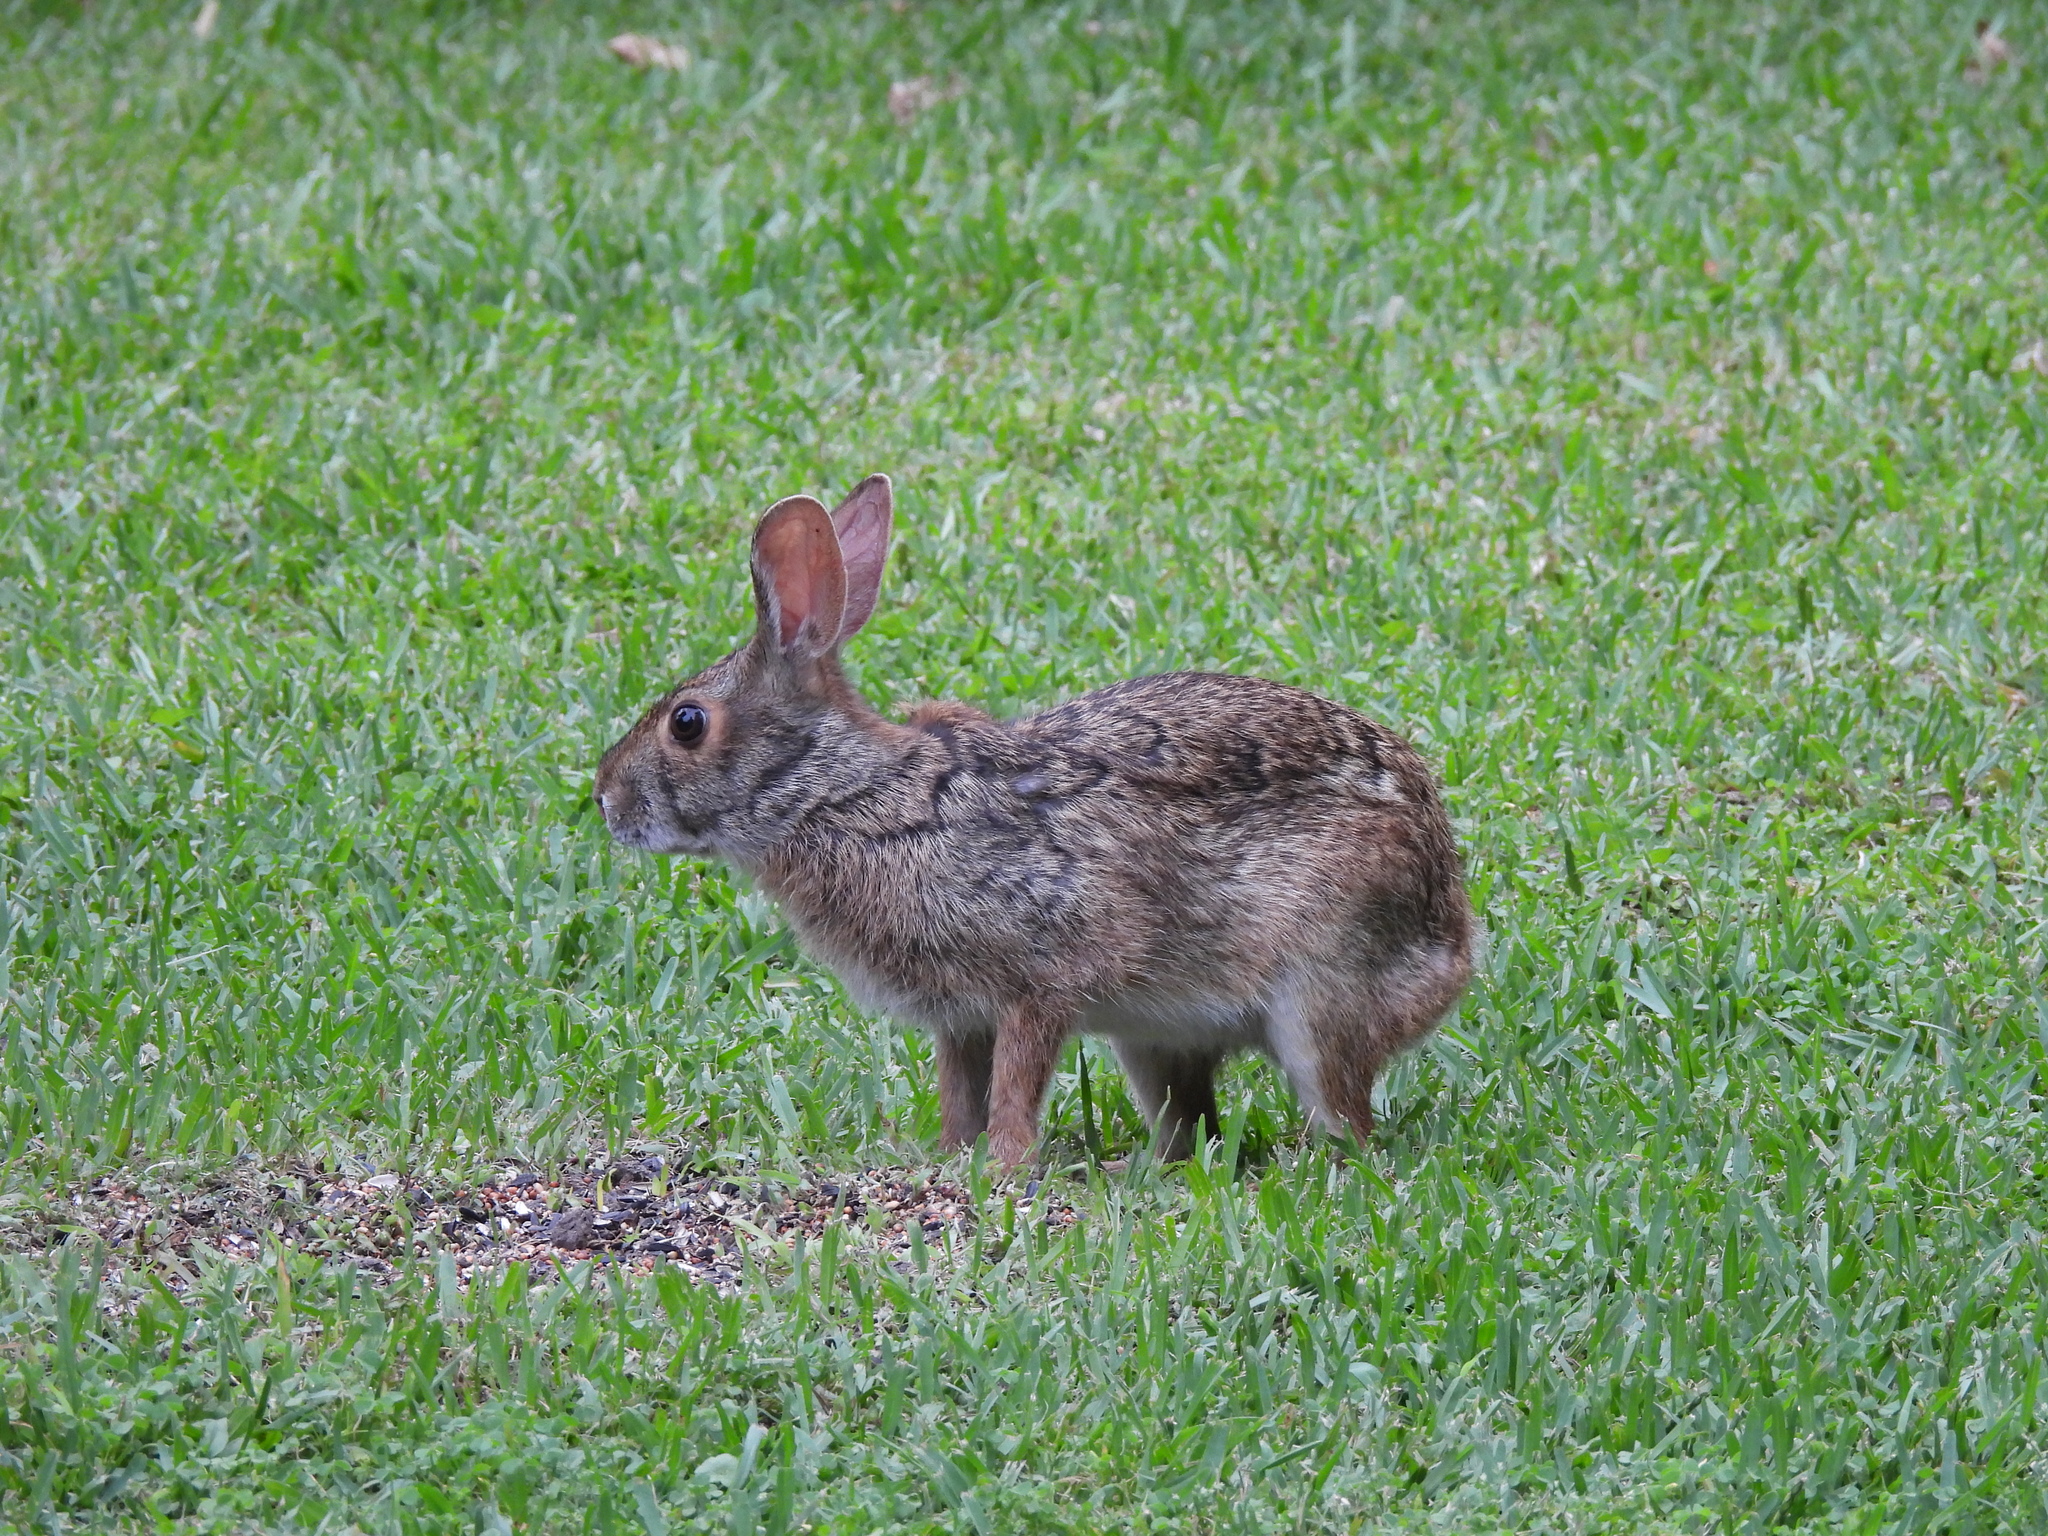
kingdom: Animalia
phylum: Chordata
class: Mammalia
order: Lagomorpha
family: Leporidae
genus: Sylvilagus
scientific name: Sylvilagus aquaticus
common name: Swamp rabbit
